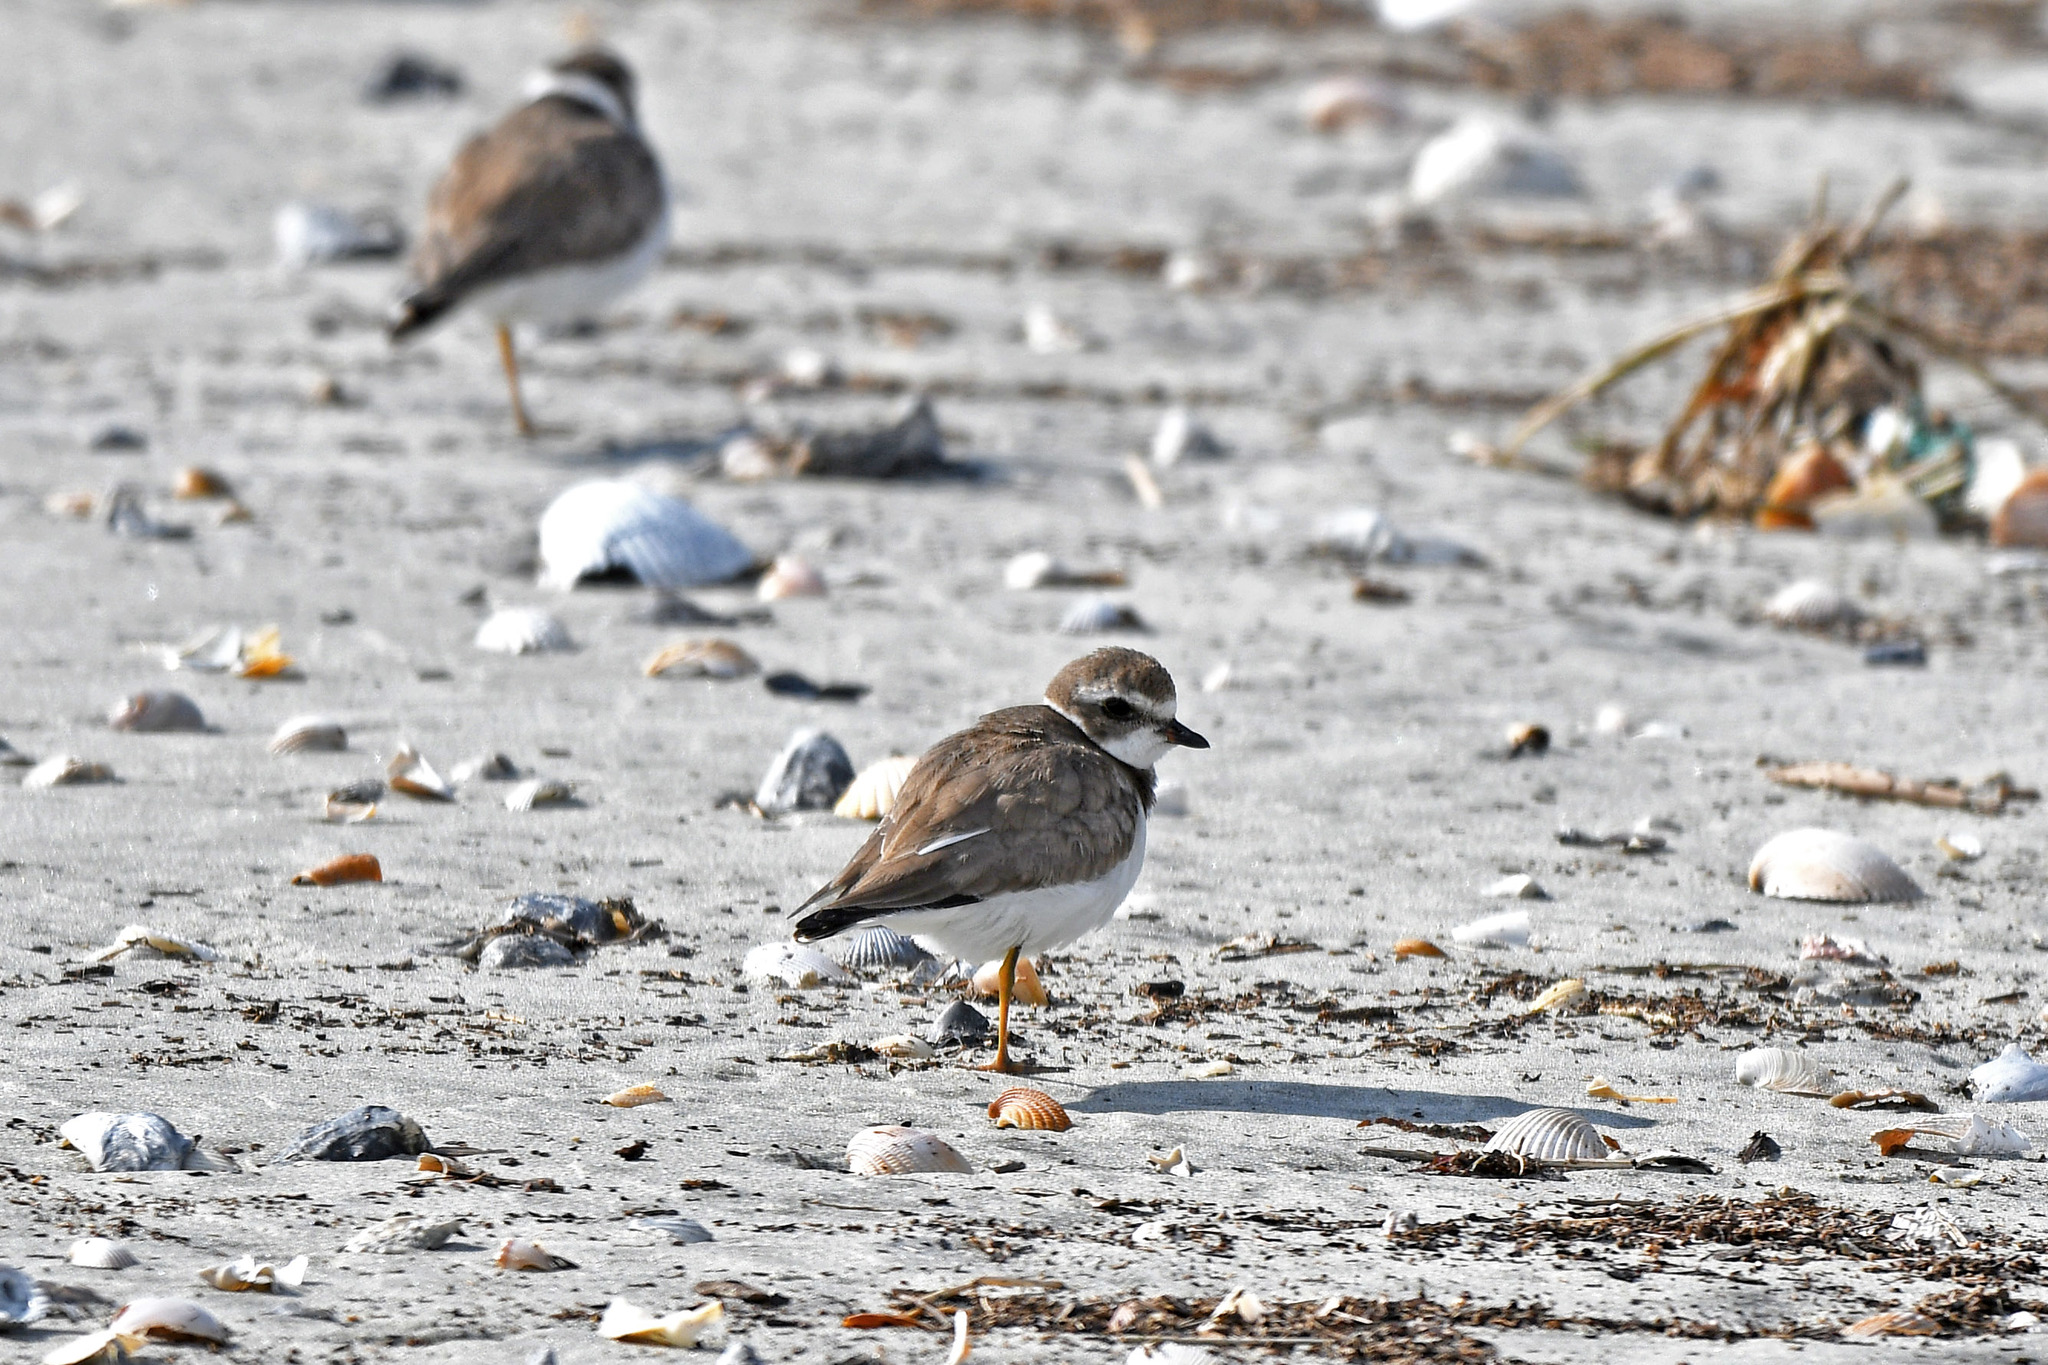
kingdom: Animalia
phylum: Chordata
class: Aves
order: Charadriiformes
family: Charadriidae
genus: Charadrius
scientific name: Charadrius semipalmatus
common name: Semipalmated plover
